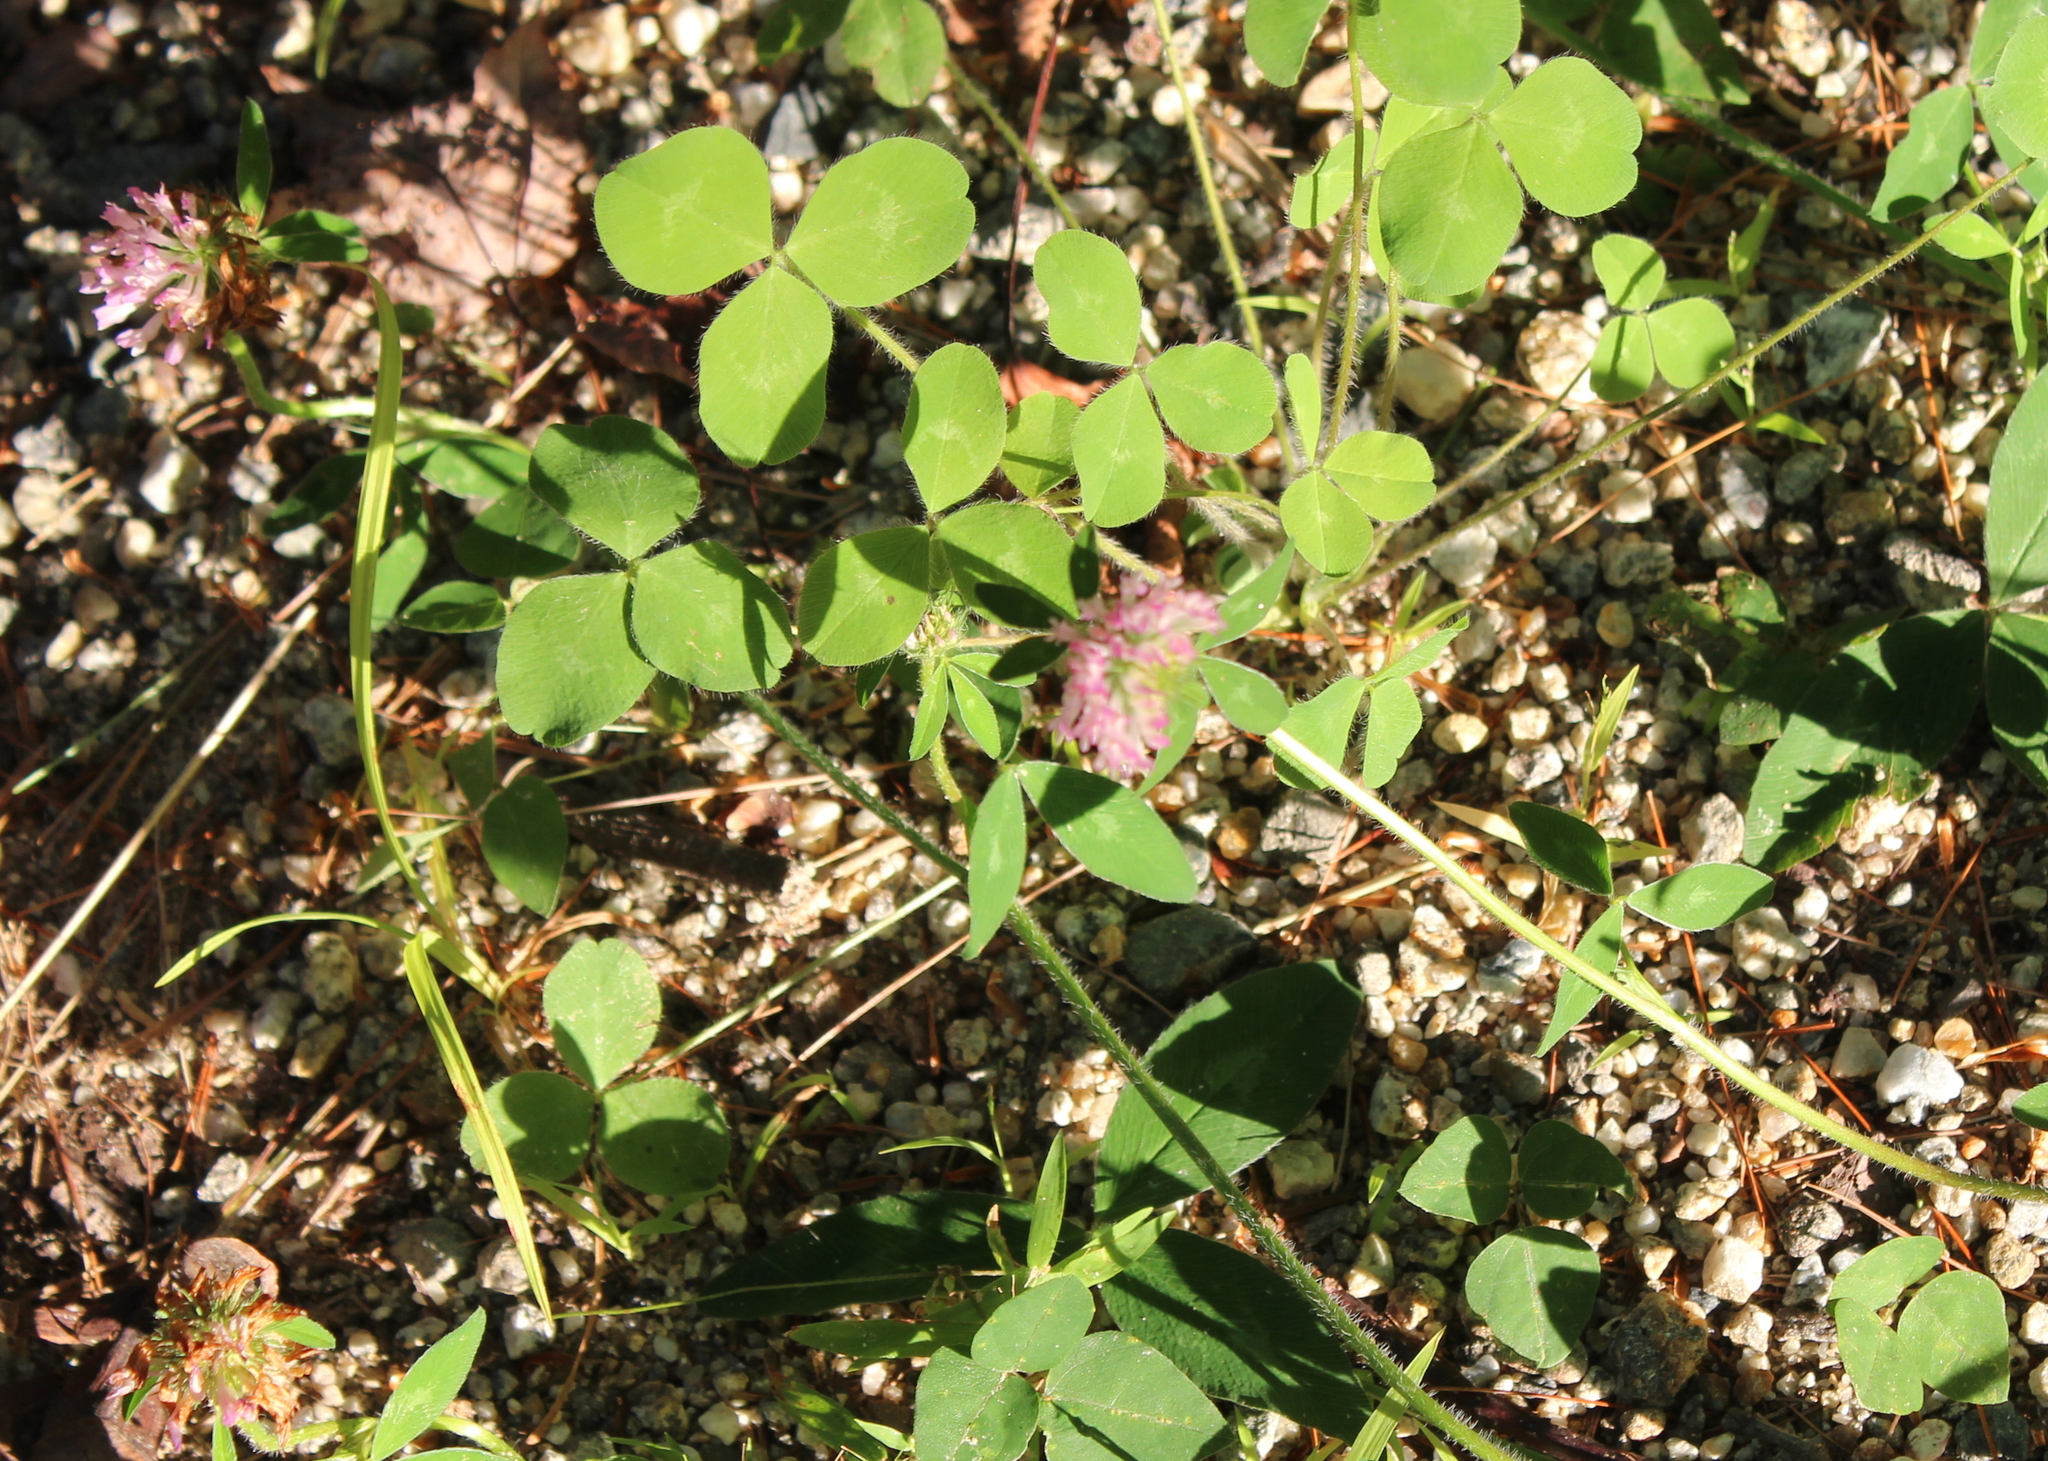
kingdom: Plantae
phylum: Tracheophyta
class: Magnoliopsida
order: Fabales
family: Fabaceae
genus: Trifolium
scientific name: Trifolium pratense
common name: Red clover
